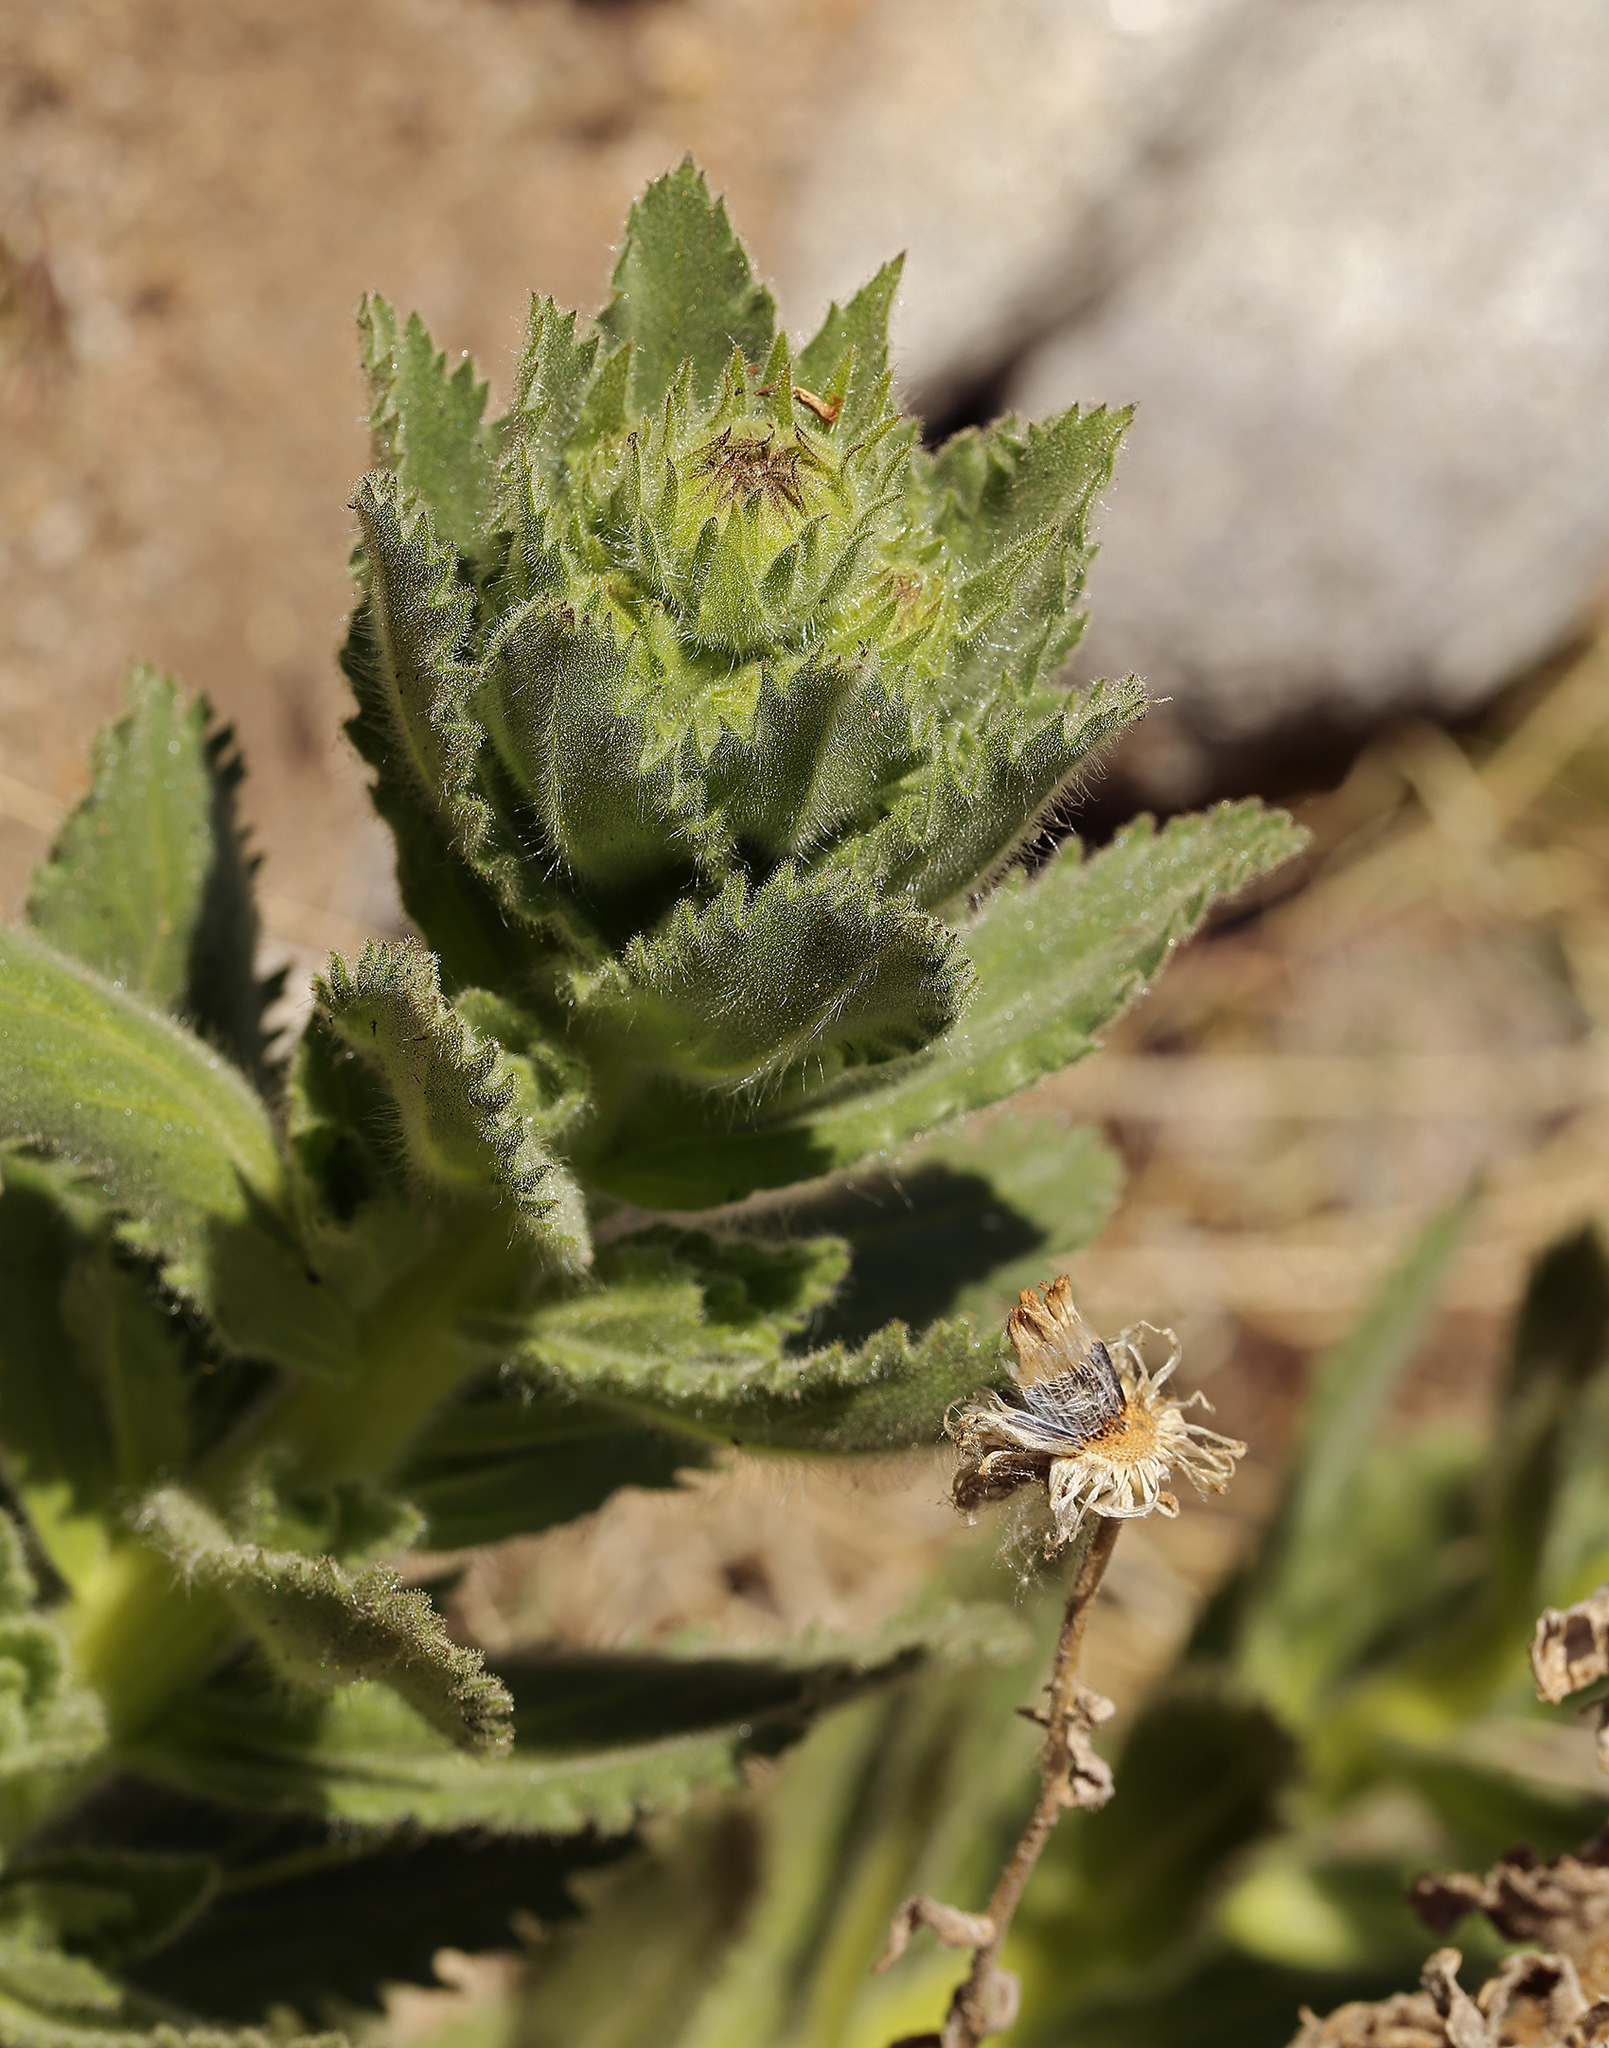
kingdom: Plantae
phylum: Tracheophyta
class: Magnoliopsida
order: Asterales
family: Asteraceae
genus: Hulsea
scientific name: Hulsea heterochroma
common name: Redray alpinegold
